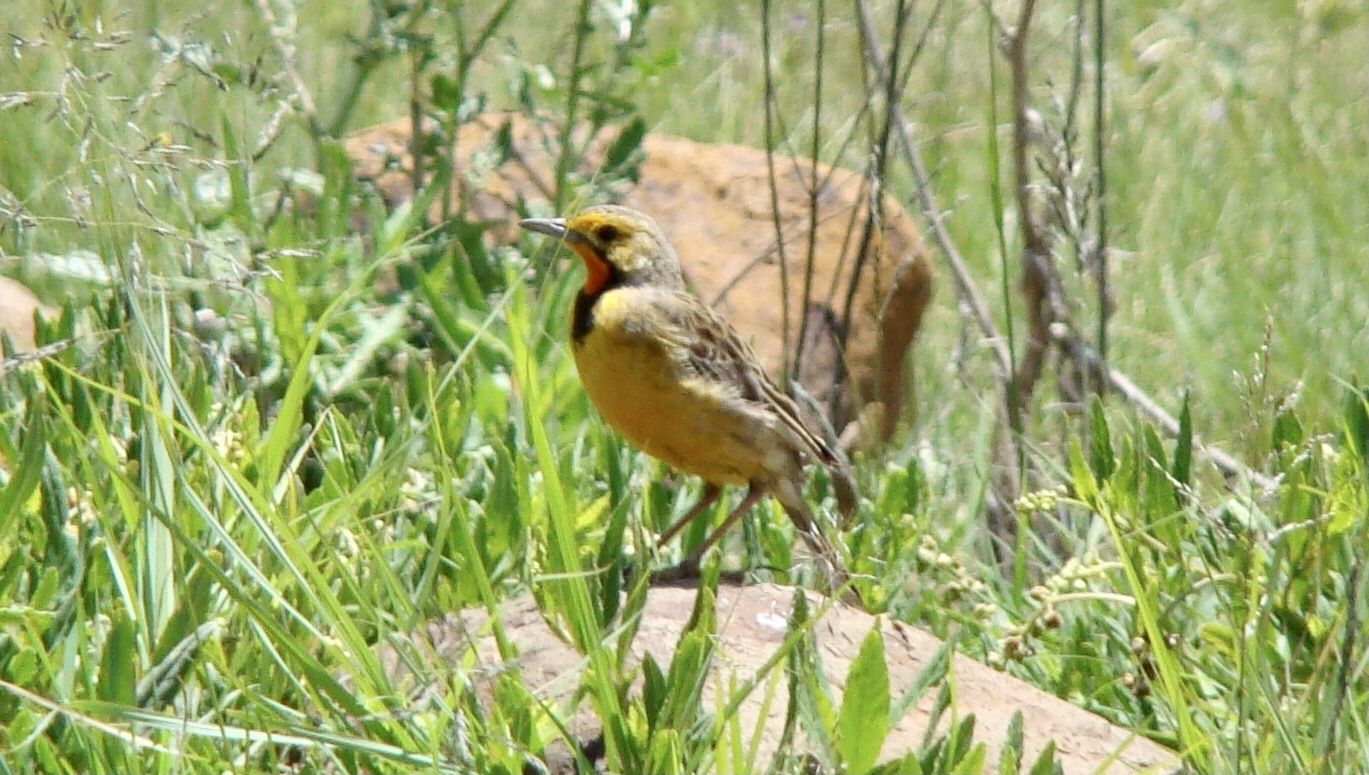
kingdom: Animalia
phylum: Chordata
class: Aves
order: Passeriformes
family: Motacillidae
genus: Macronyx
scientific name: Macronyx capensis
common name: Cape longclaw
